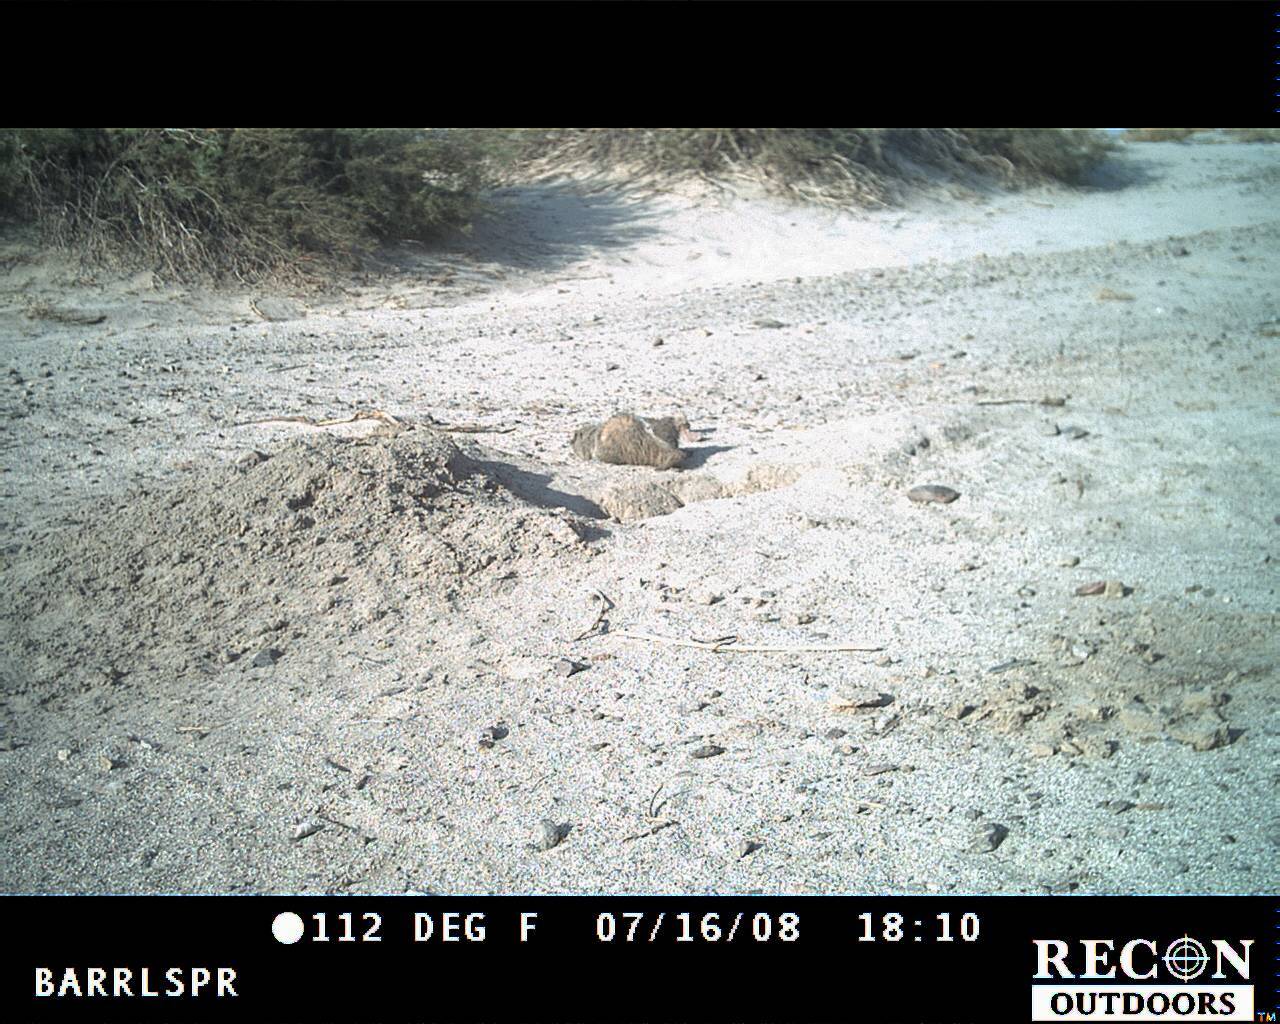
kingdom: Animalia
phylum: Chordata
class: Mammalia
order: Carnivora
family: Mustelidae
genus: Taxidea
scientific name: Taxidea taxus
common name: American badger
